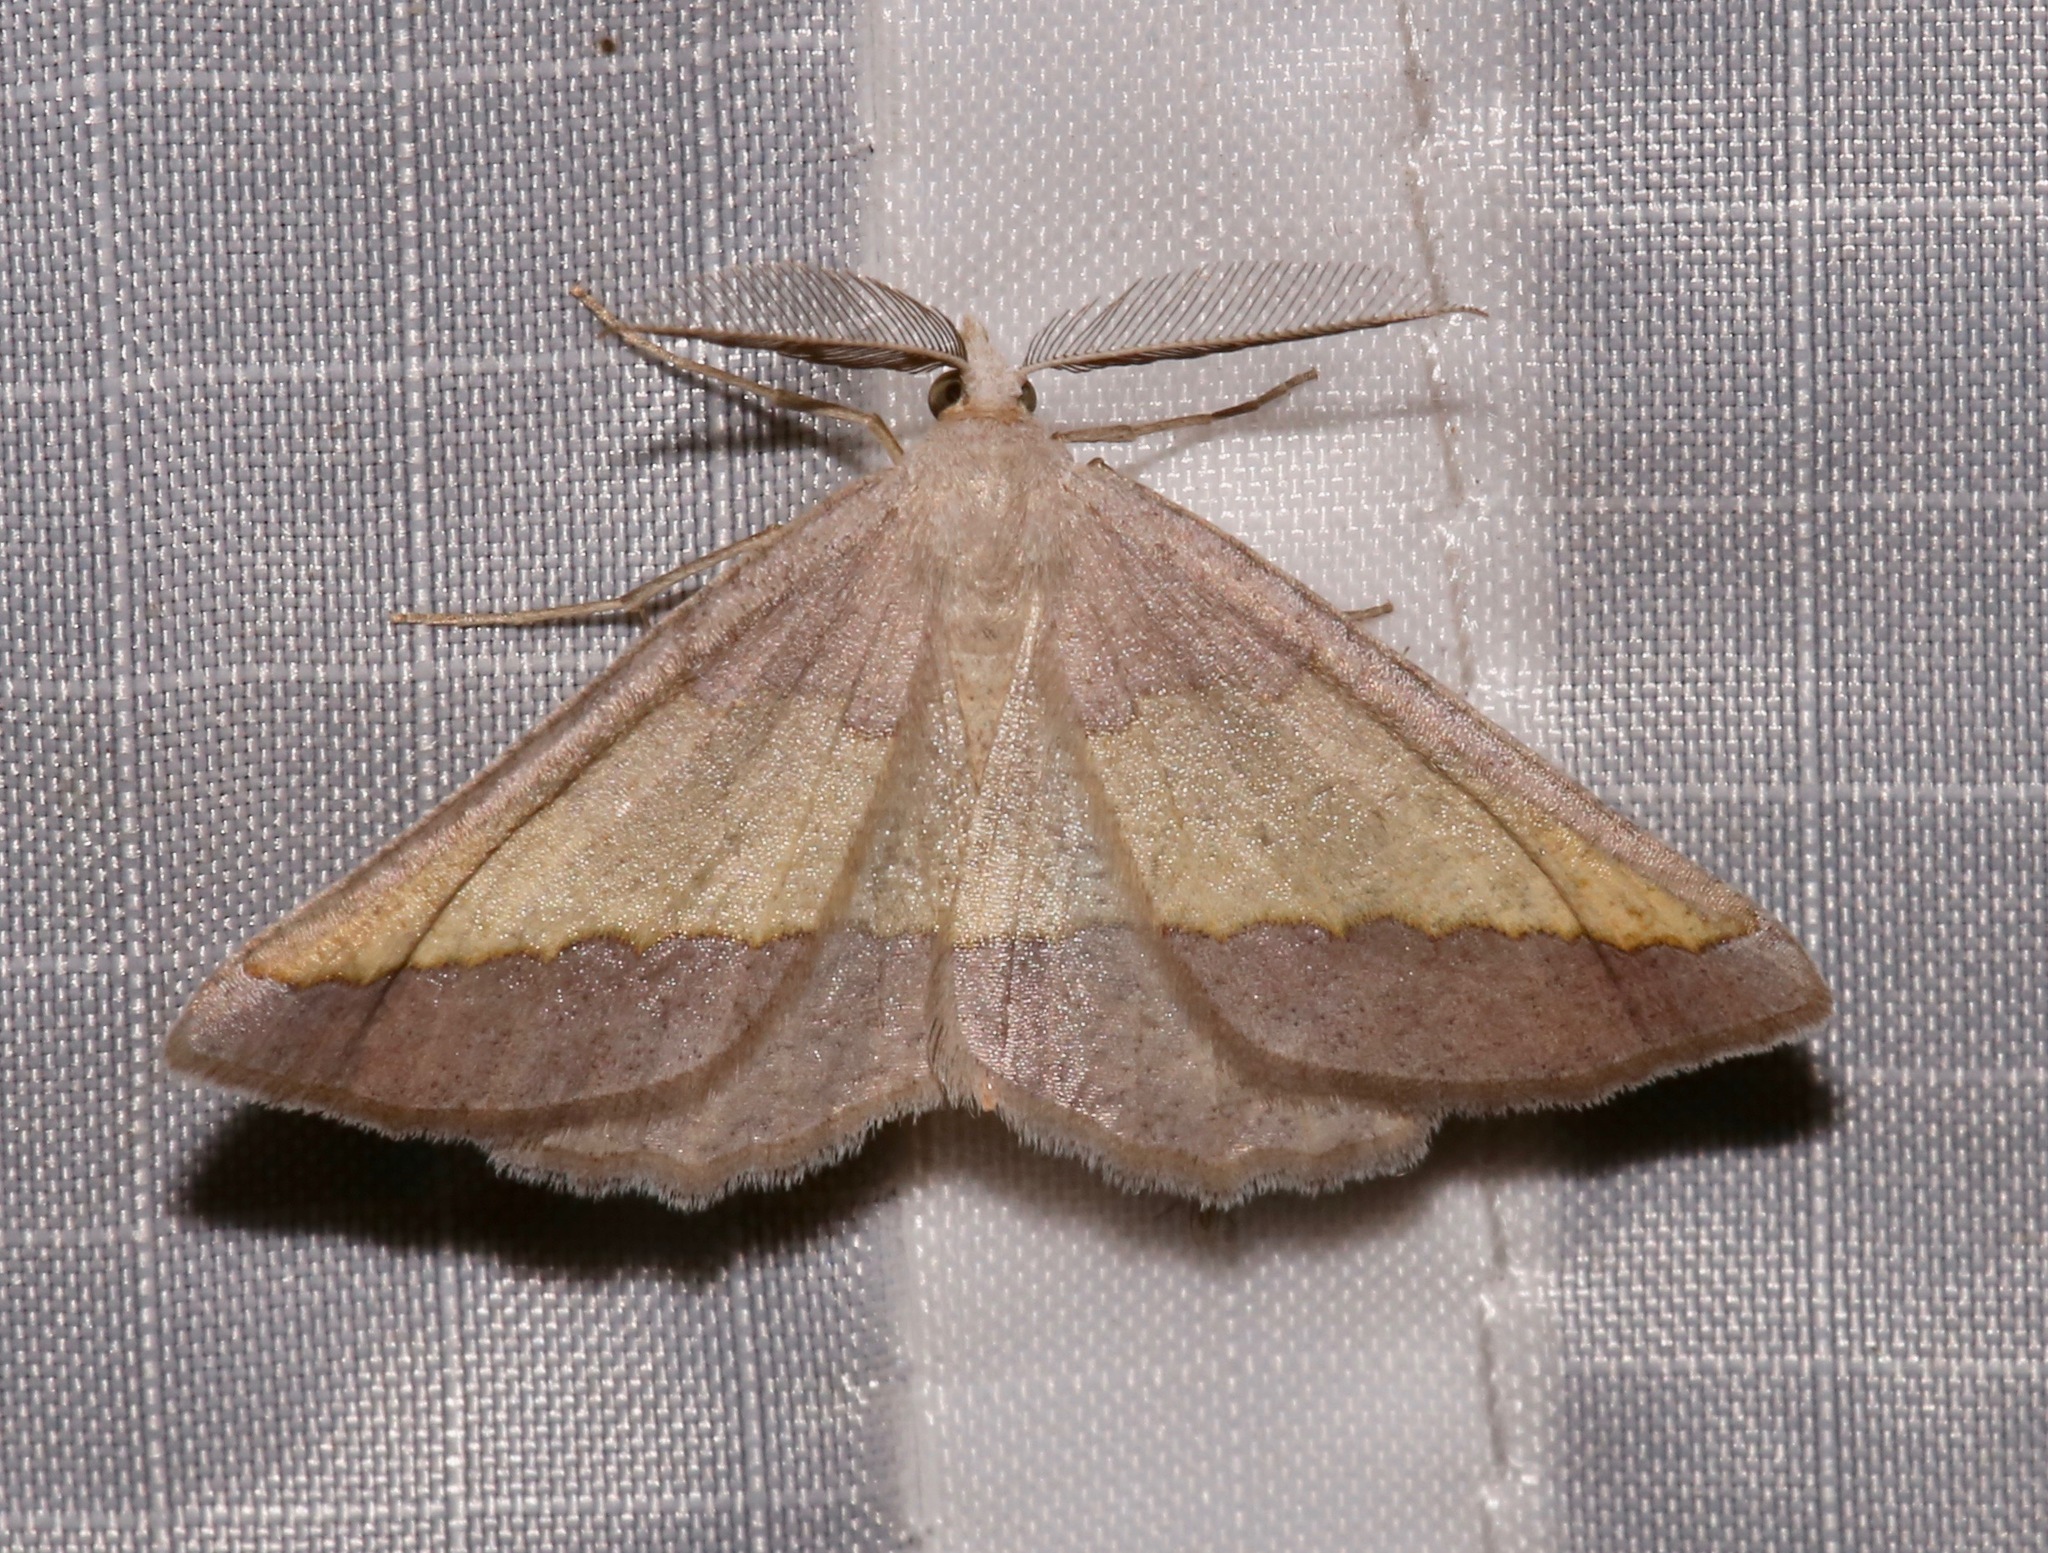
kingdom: Animalia
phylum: Arthropoda
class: Insecta
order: Lepidoptera
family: Geometridae
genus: Lychnosea
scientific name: Lychnosea helveolaria
